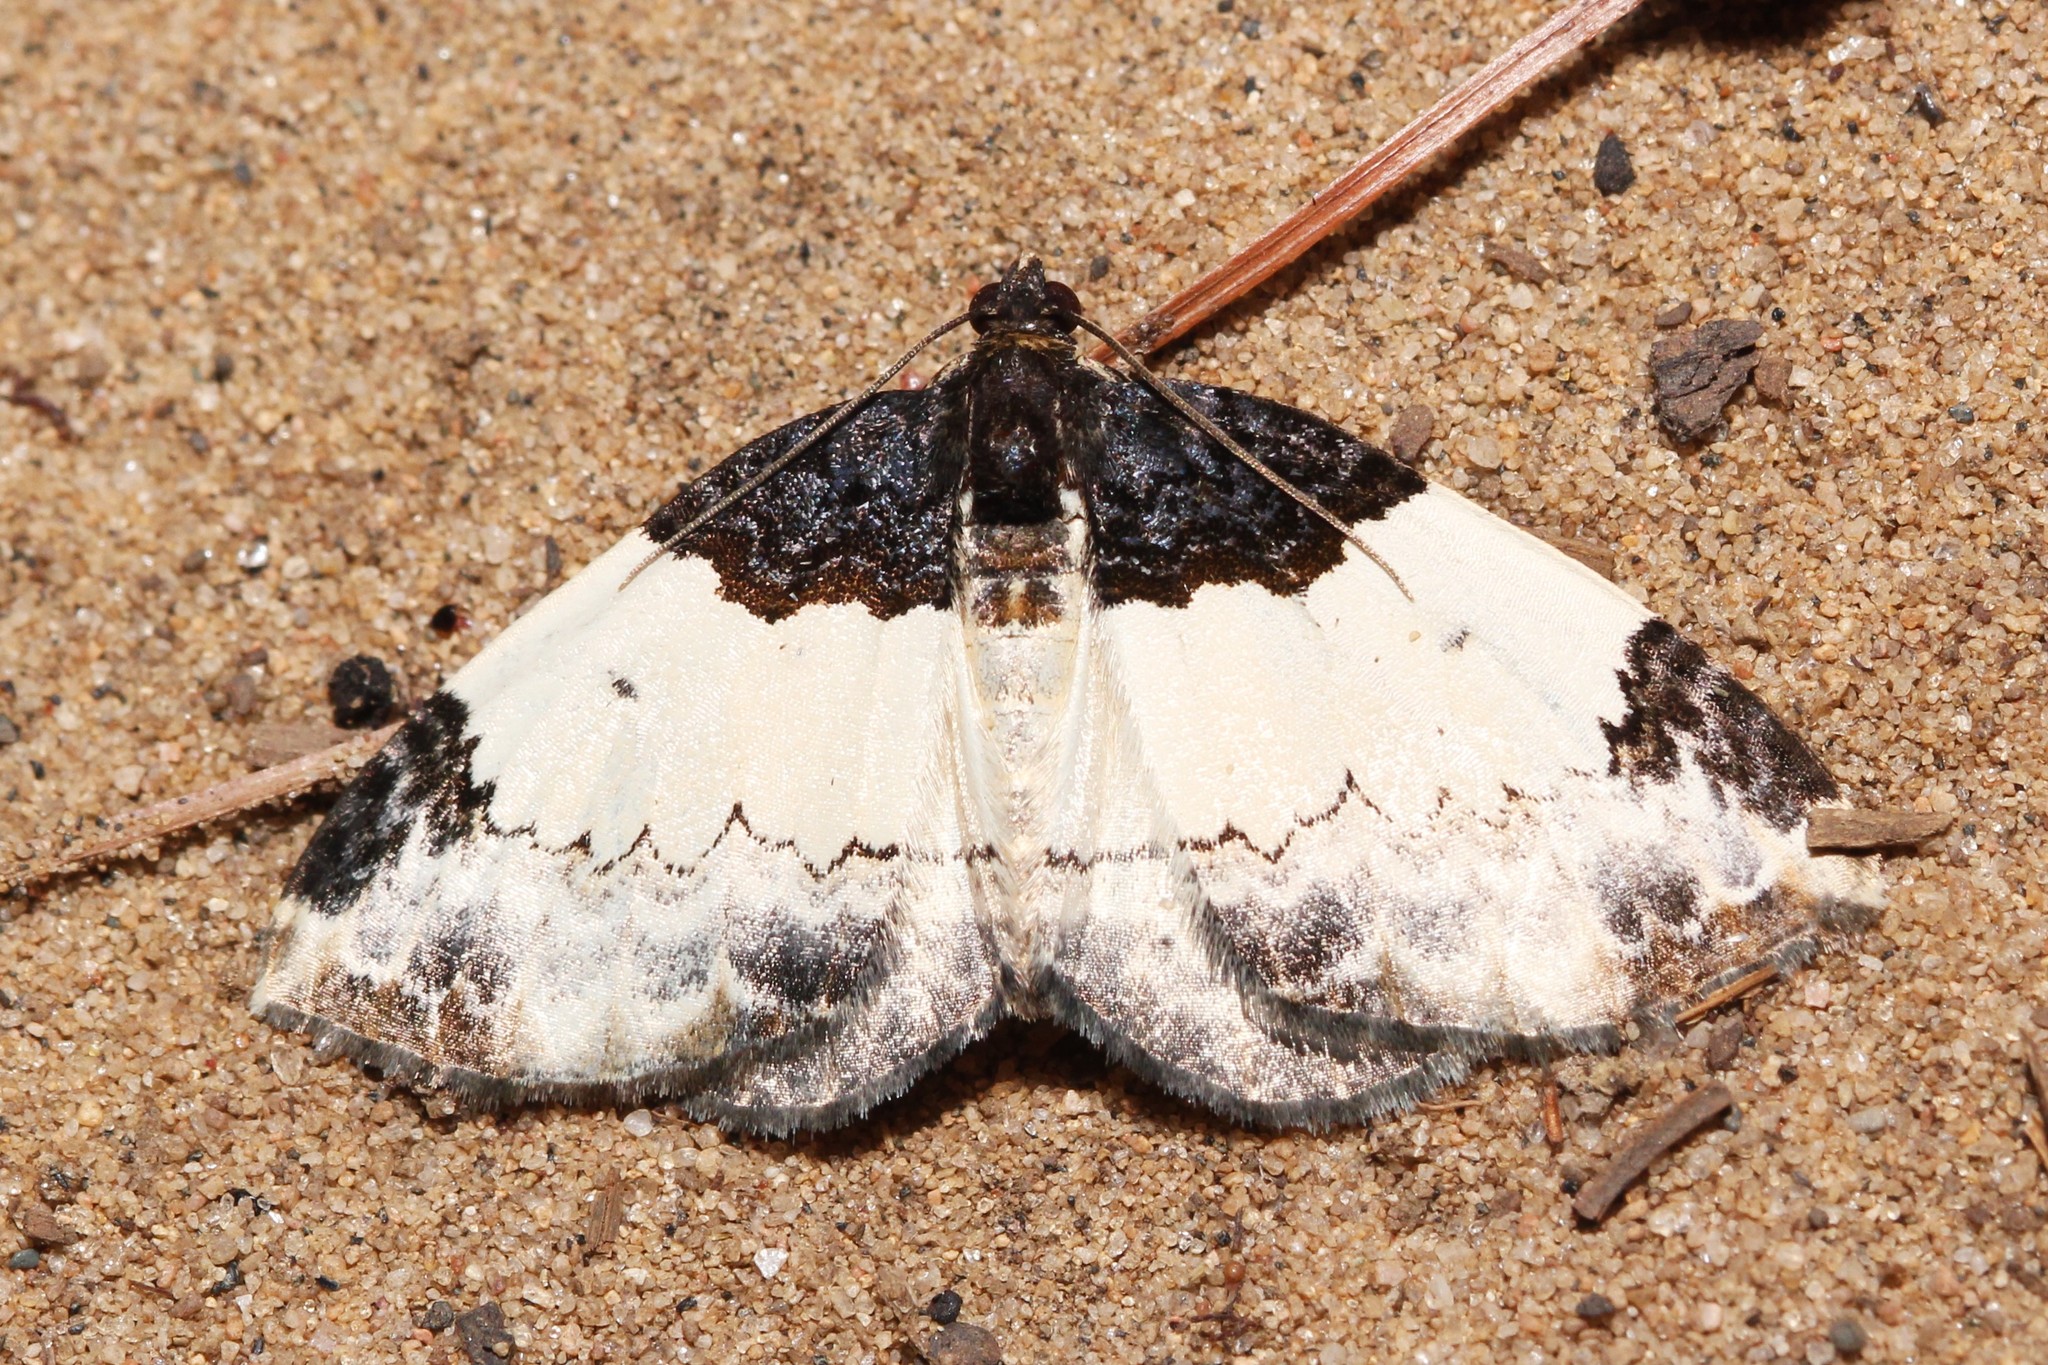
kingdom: Animalia
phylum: Arthropoda
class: Insecta
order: Lepidoptera
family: Geometridae
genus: Mesoleuca
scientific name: Mesoleuca ruficillata
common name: White-ribboned carpet moth
